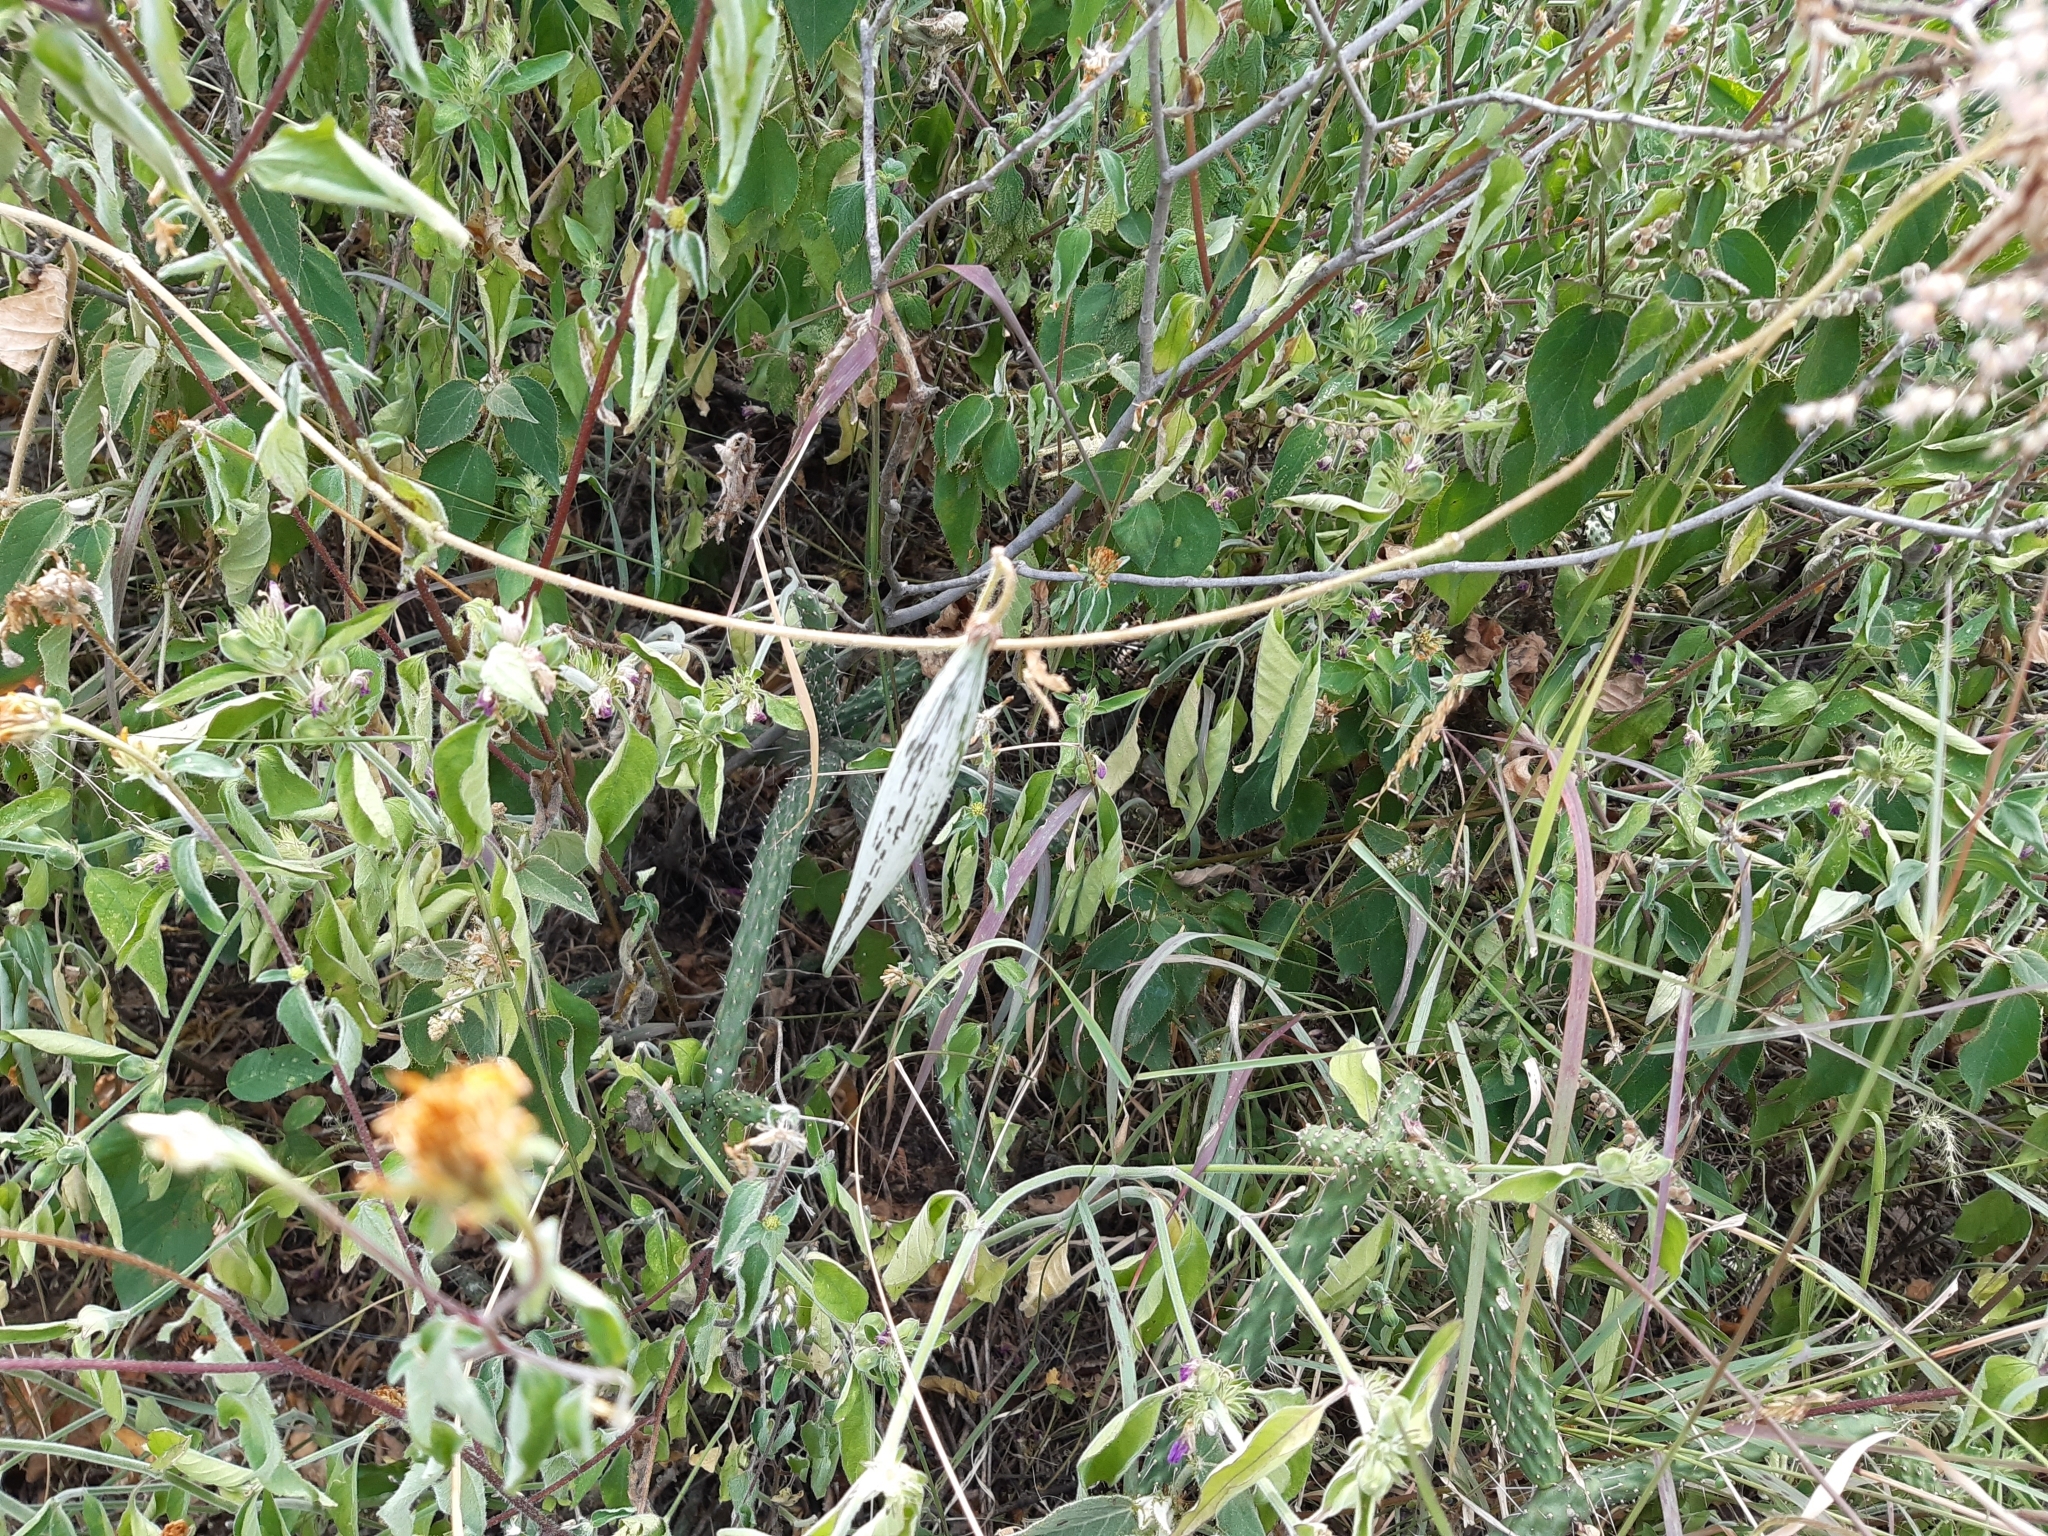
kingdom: Plantae
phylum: Tracheophyta
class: Magnoliopsida
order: Gentianales
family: Apocynaceae
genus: Matelea
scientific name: Matelea pilosa
